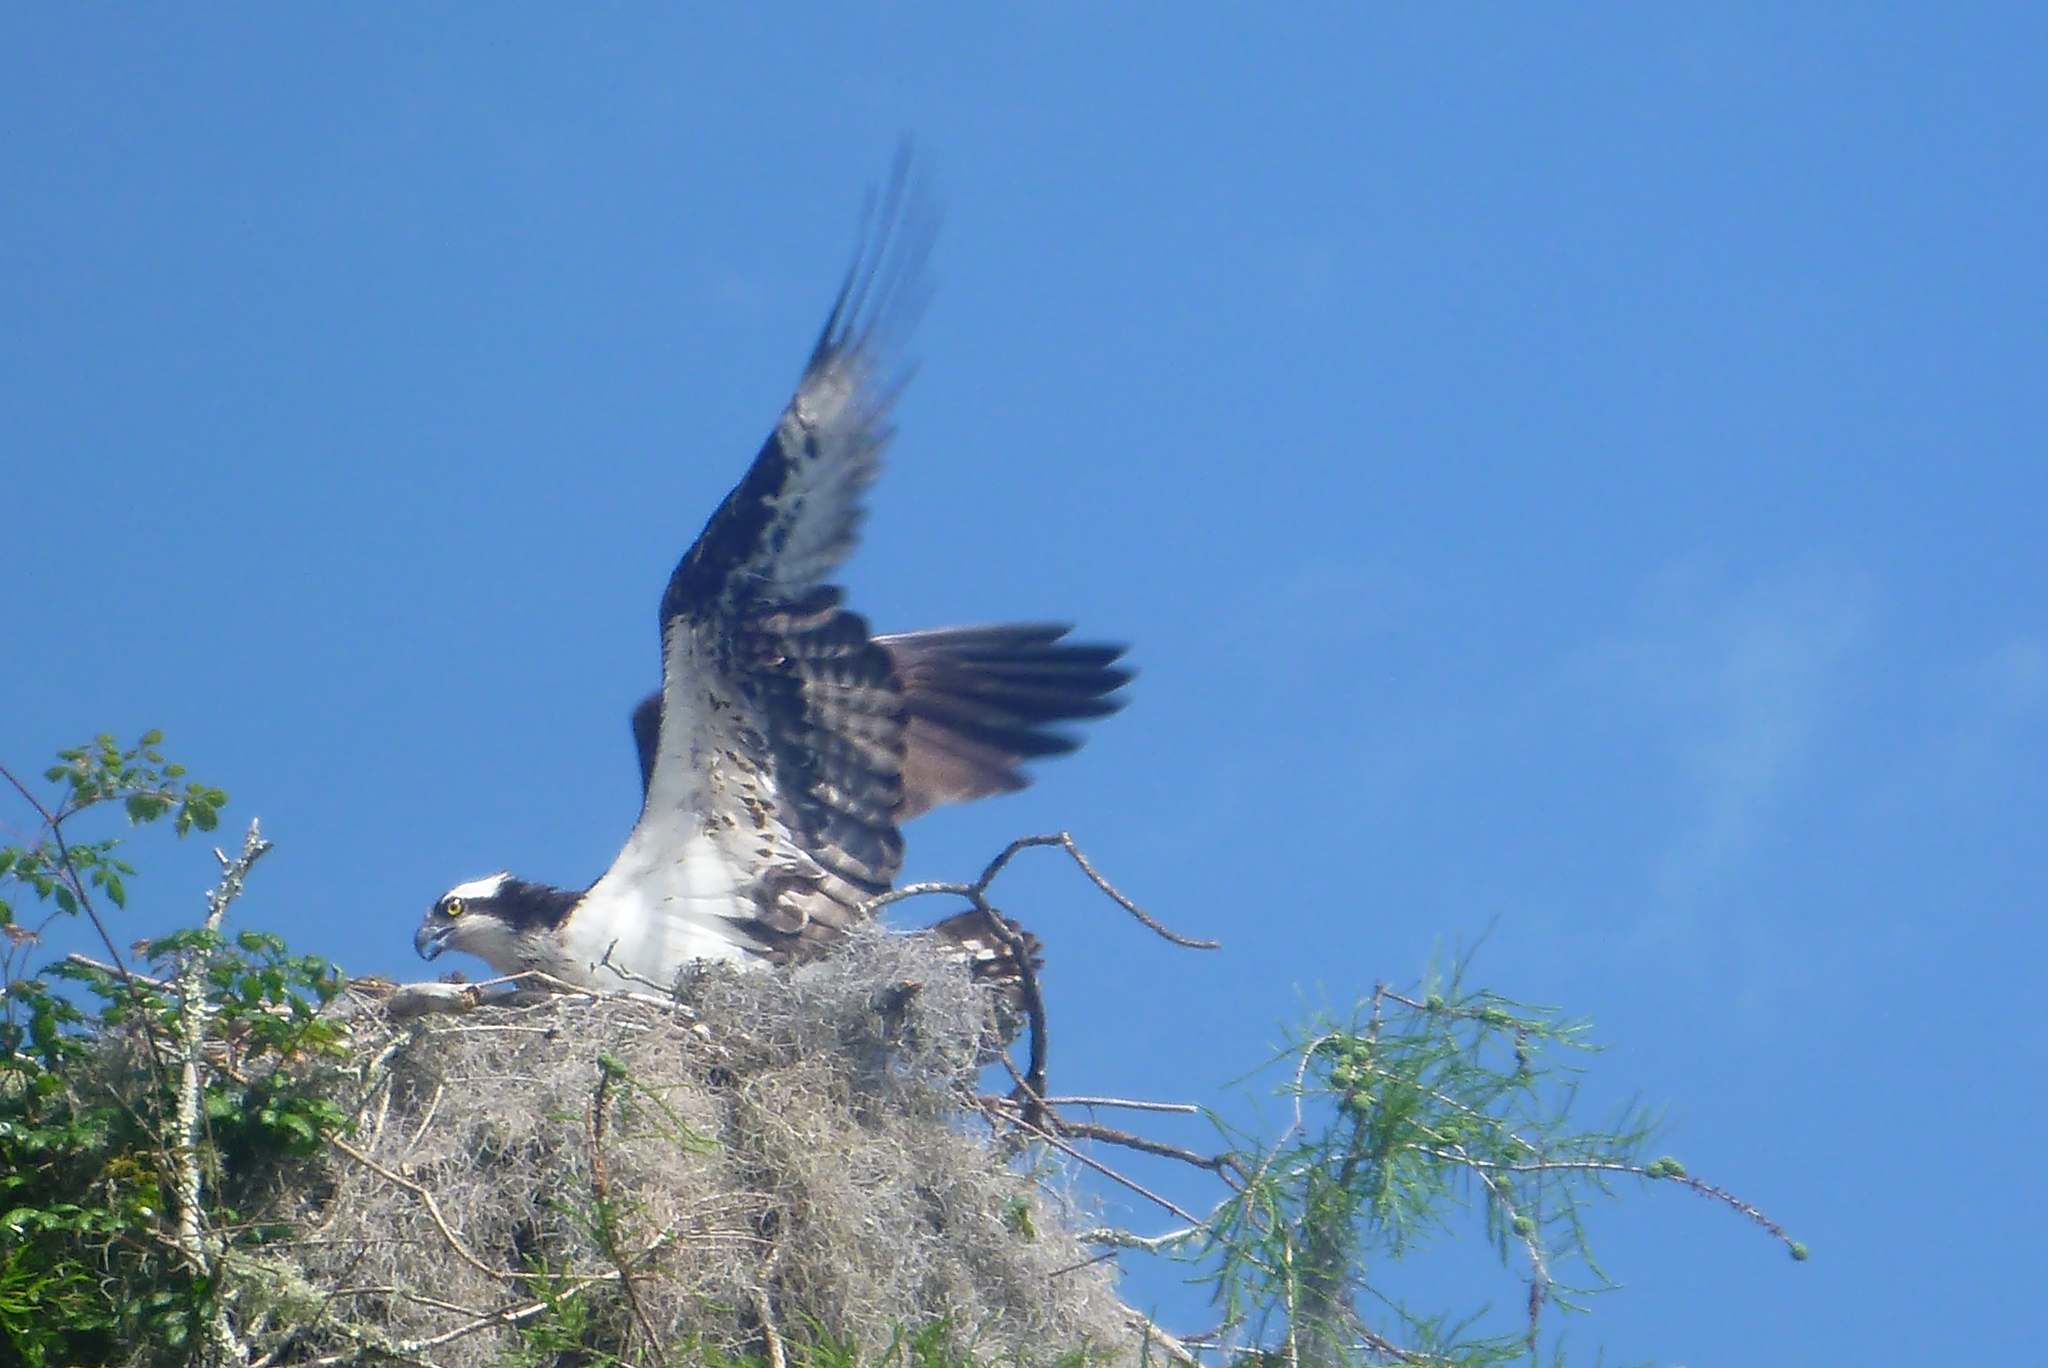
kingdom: Animalia
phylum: Chordata
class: Aves
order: Accipitriformes
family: Pandionidae
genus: Pandion
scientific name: Pandion haliaetus
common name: Osprey
